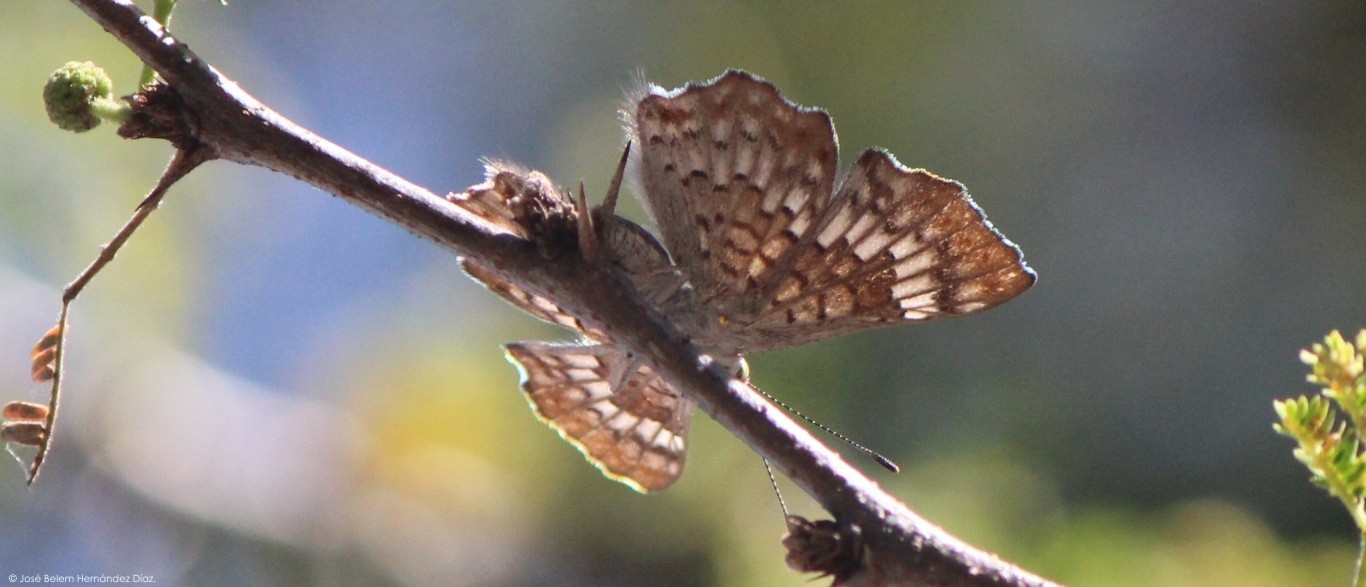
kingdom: Animalia
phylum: Arthropoda
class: Insecta
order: Lepidoptera
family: Riodinidae
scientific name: Riodinidae
